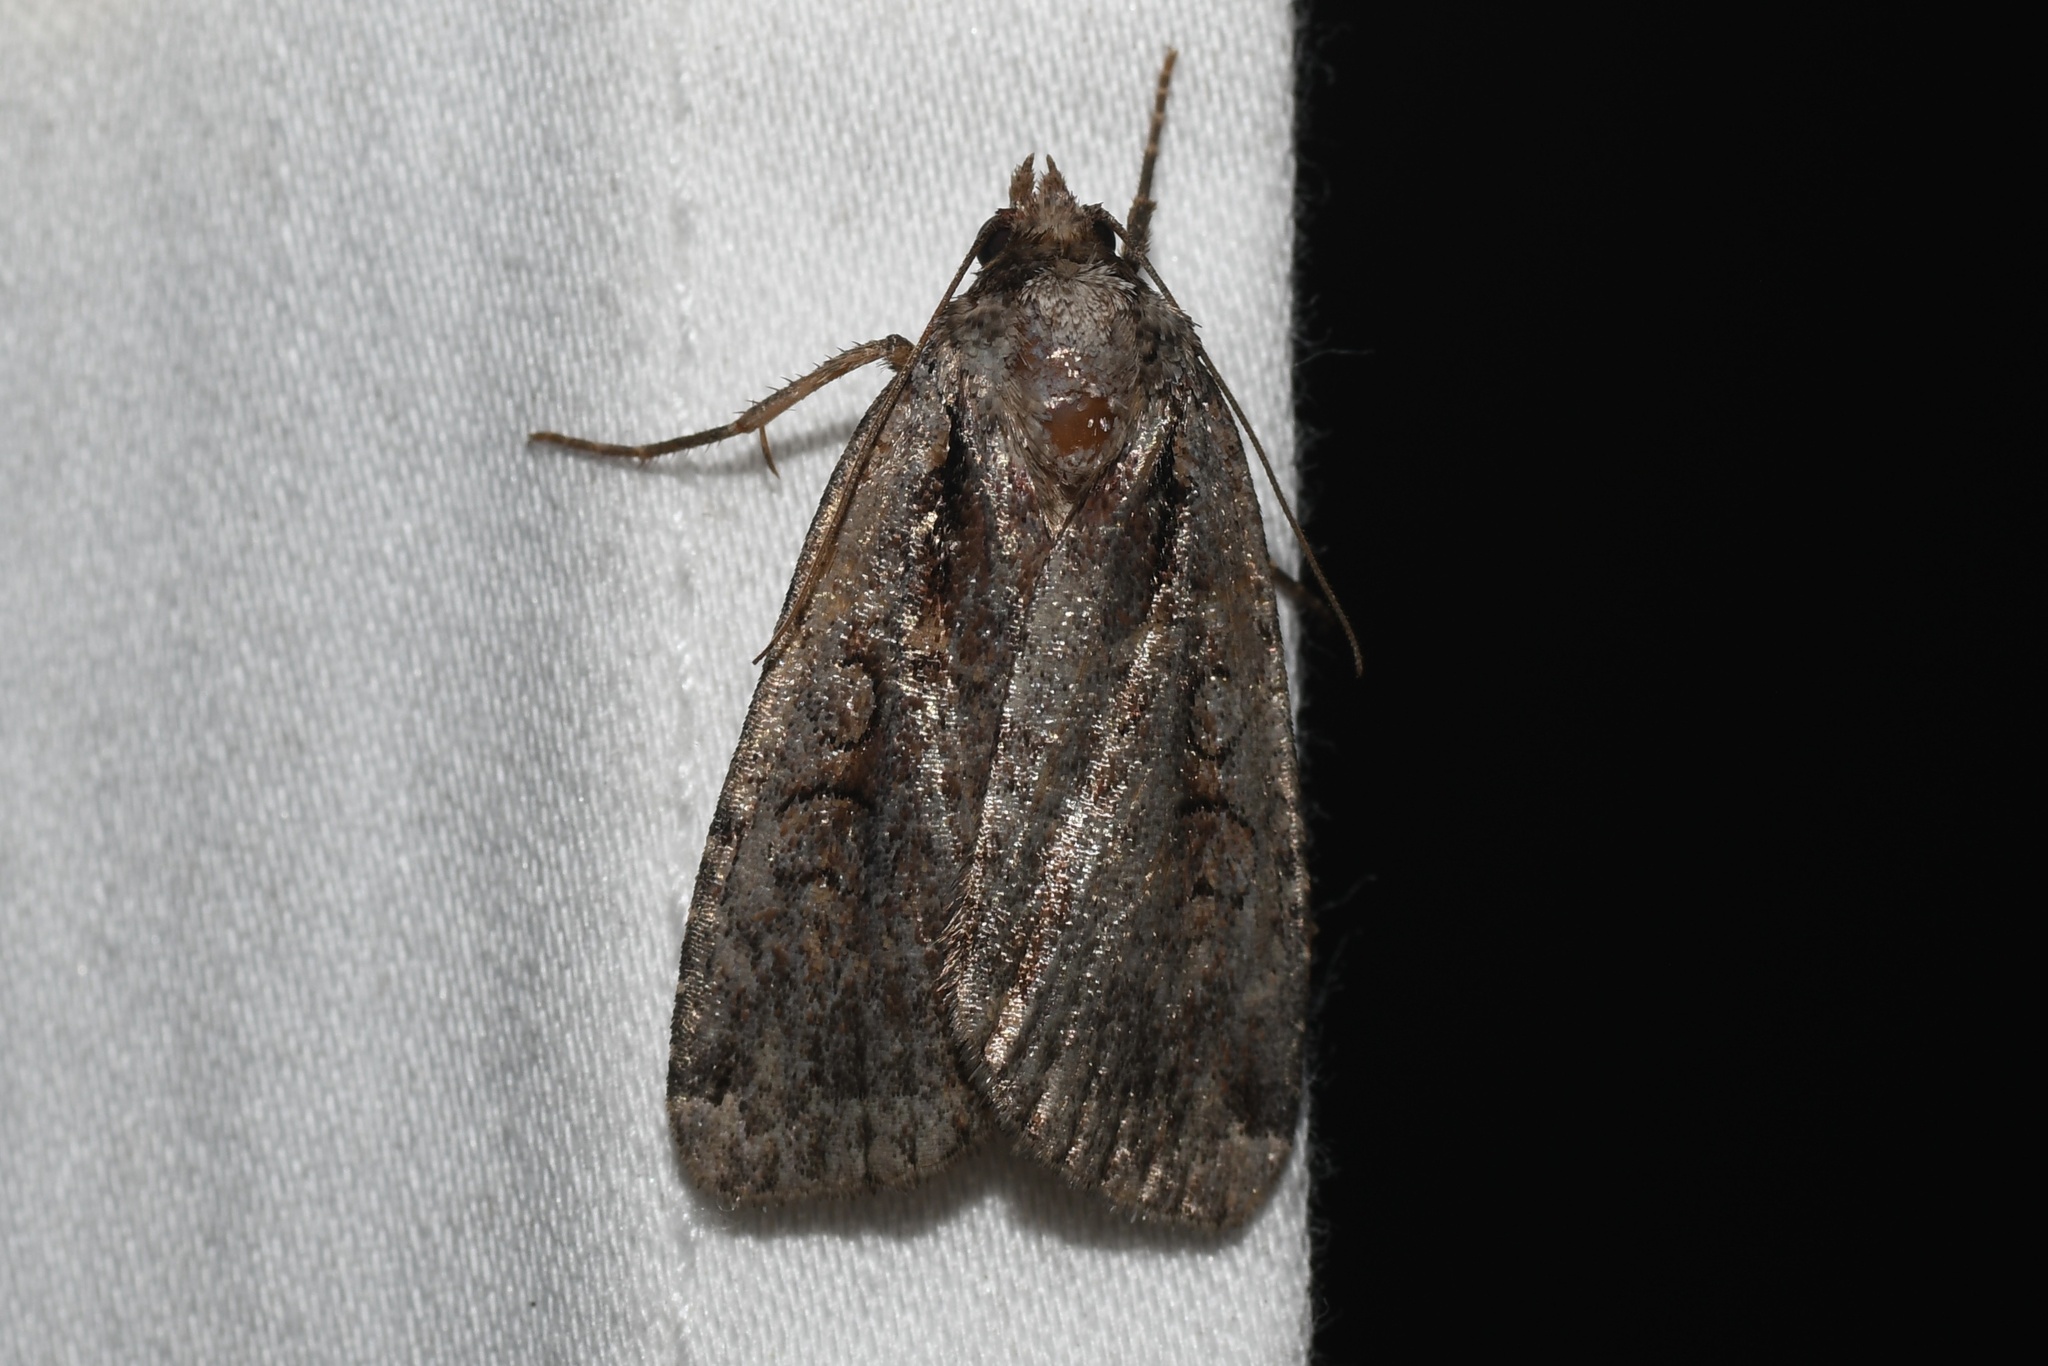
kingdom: Animalia
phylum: Arthropoda
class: Insecta
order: Lepidoptera
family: Noctuidae
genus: Eueretagrotis
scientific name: Eueretagrotis attentus
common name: Attentive dart
